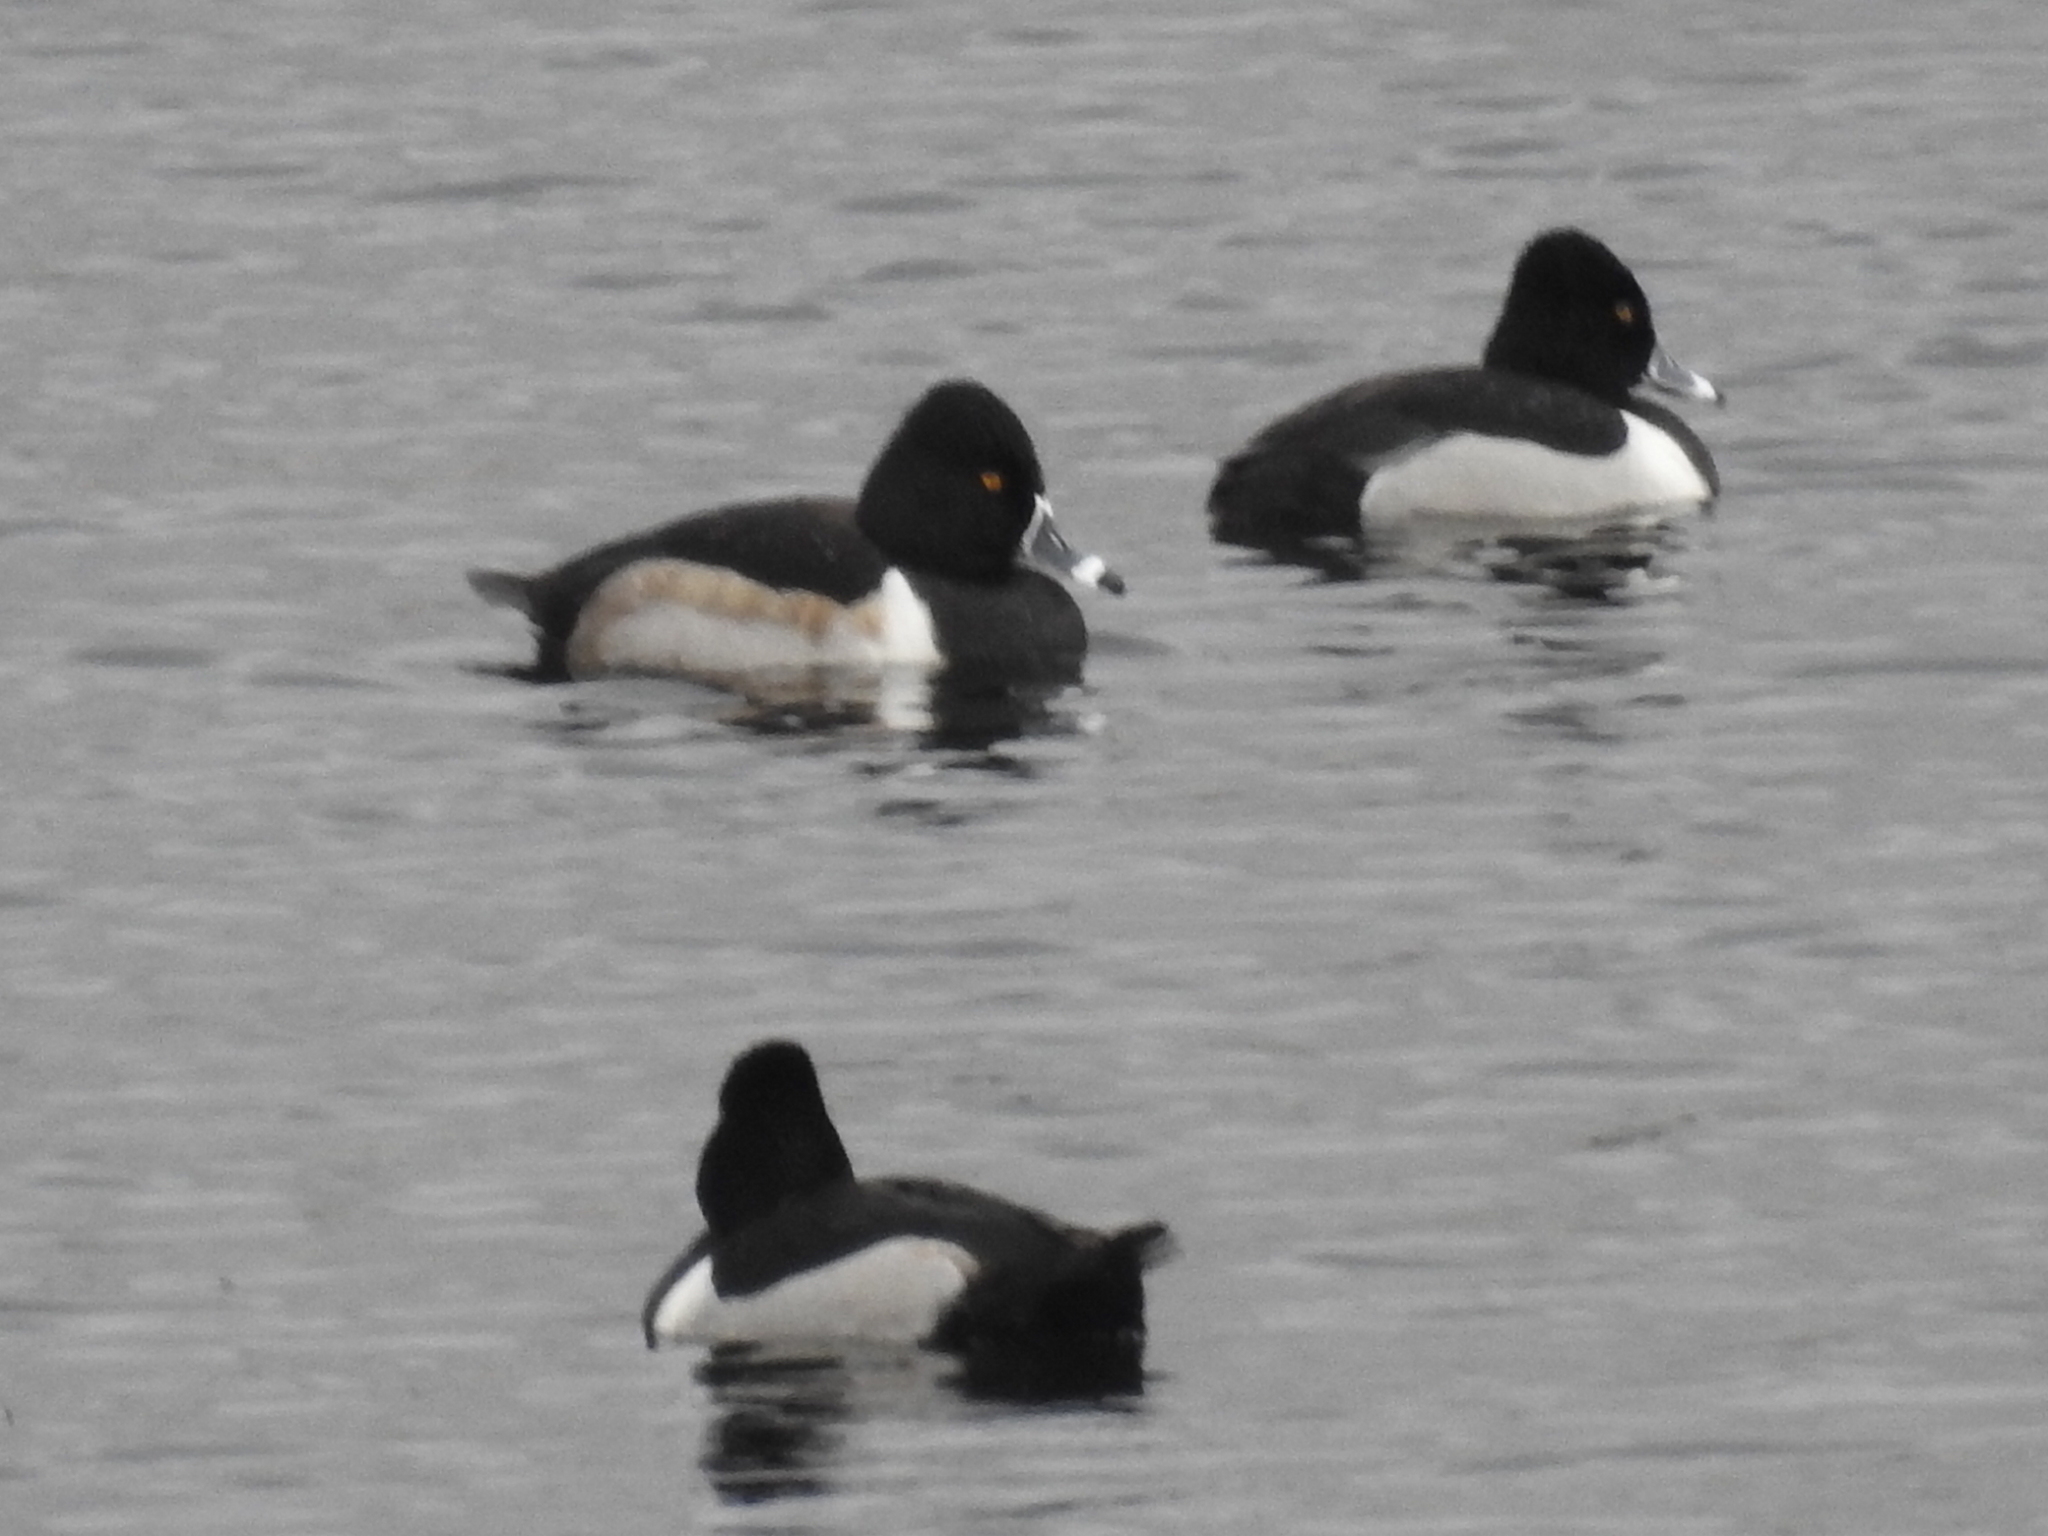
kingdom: Animalia
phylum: Chordata
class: Aves
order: Anseriformes
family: Anatidae
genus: Aythya
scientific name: Aythya collaris
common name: Ring-necked duck
